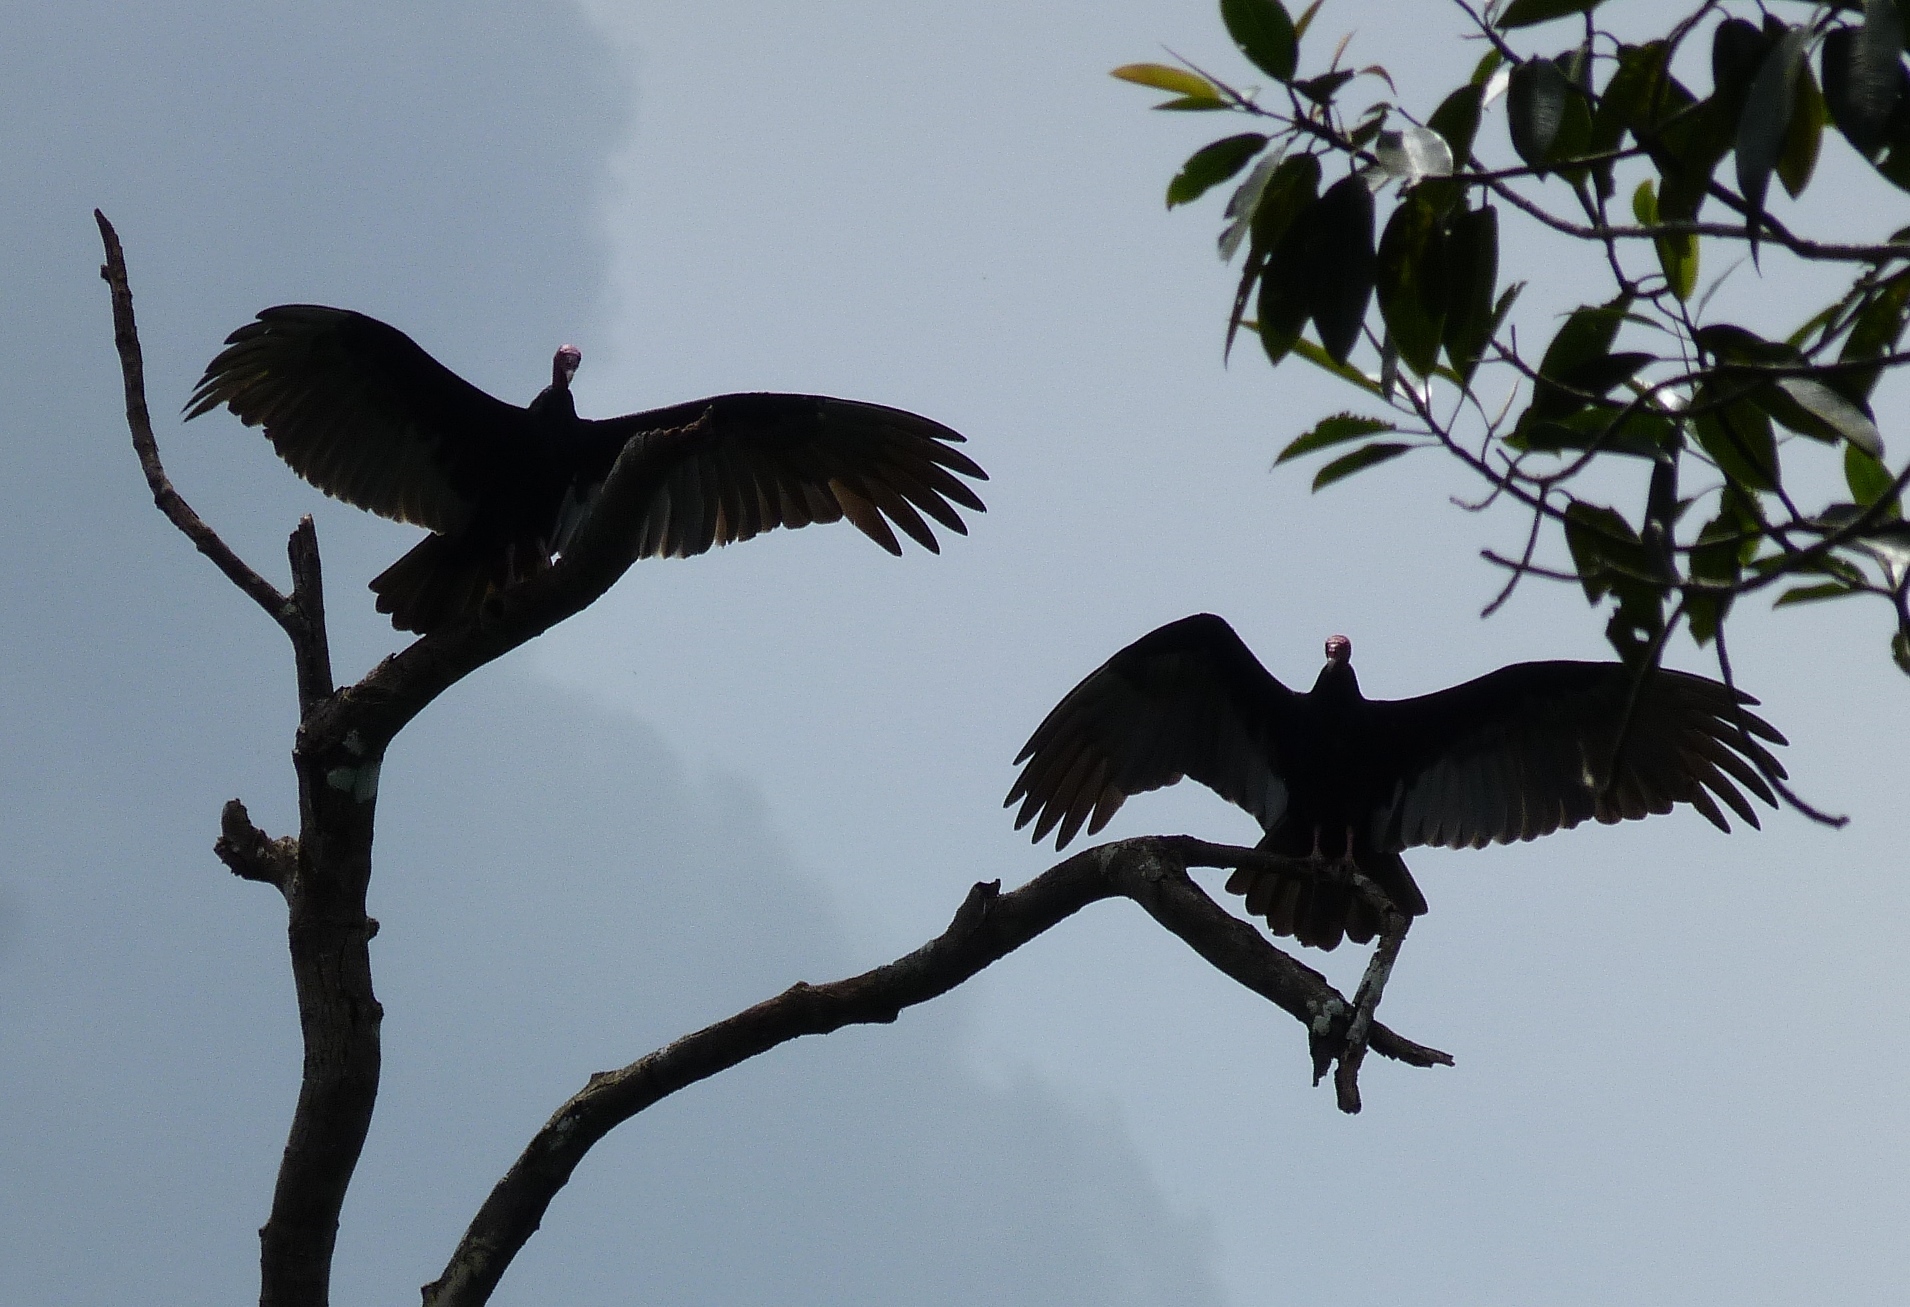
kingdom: Animalia
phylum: Chordata
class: Aves
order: Accipitriformes
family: Cathartidae
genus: Cathartes
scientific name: Cathartes aura
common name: Turkey vulture
